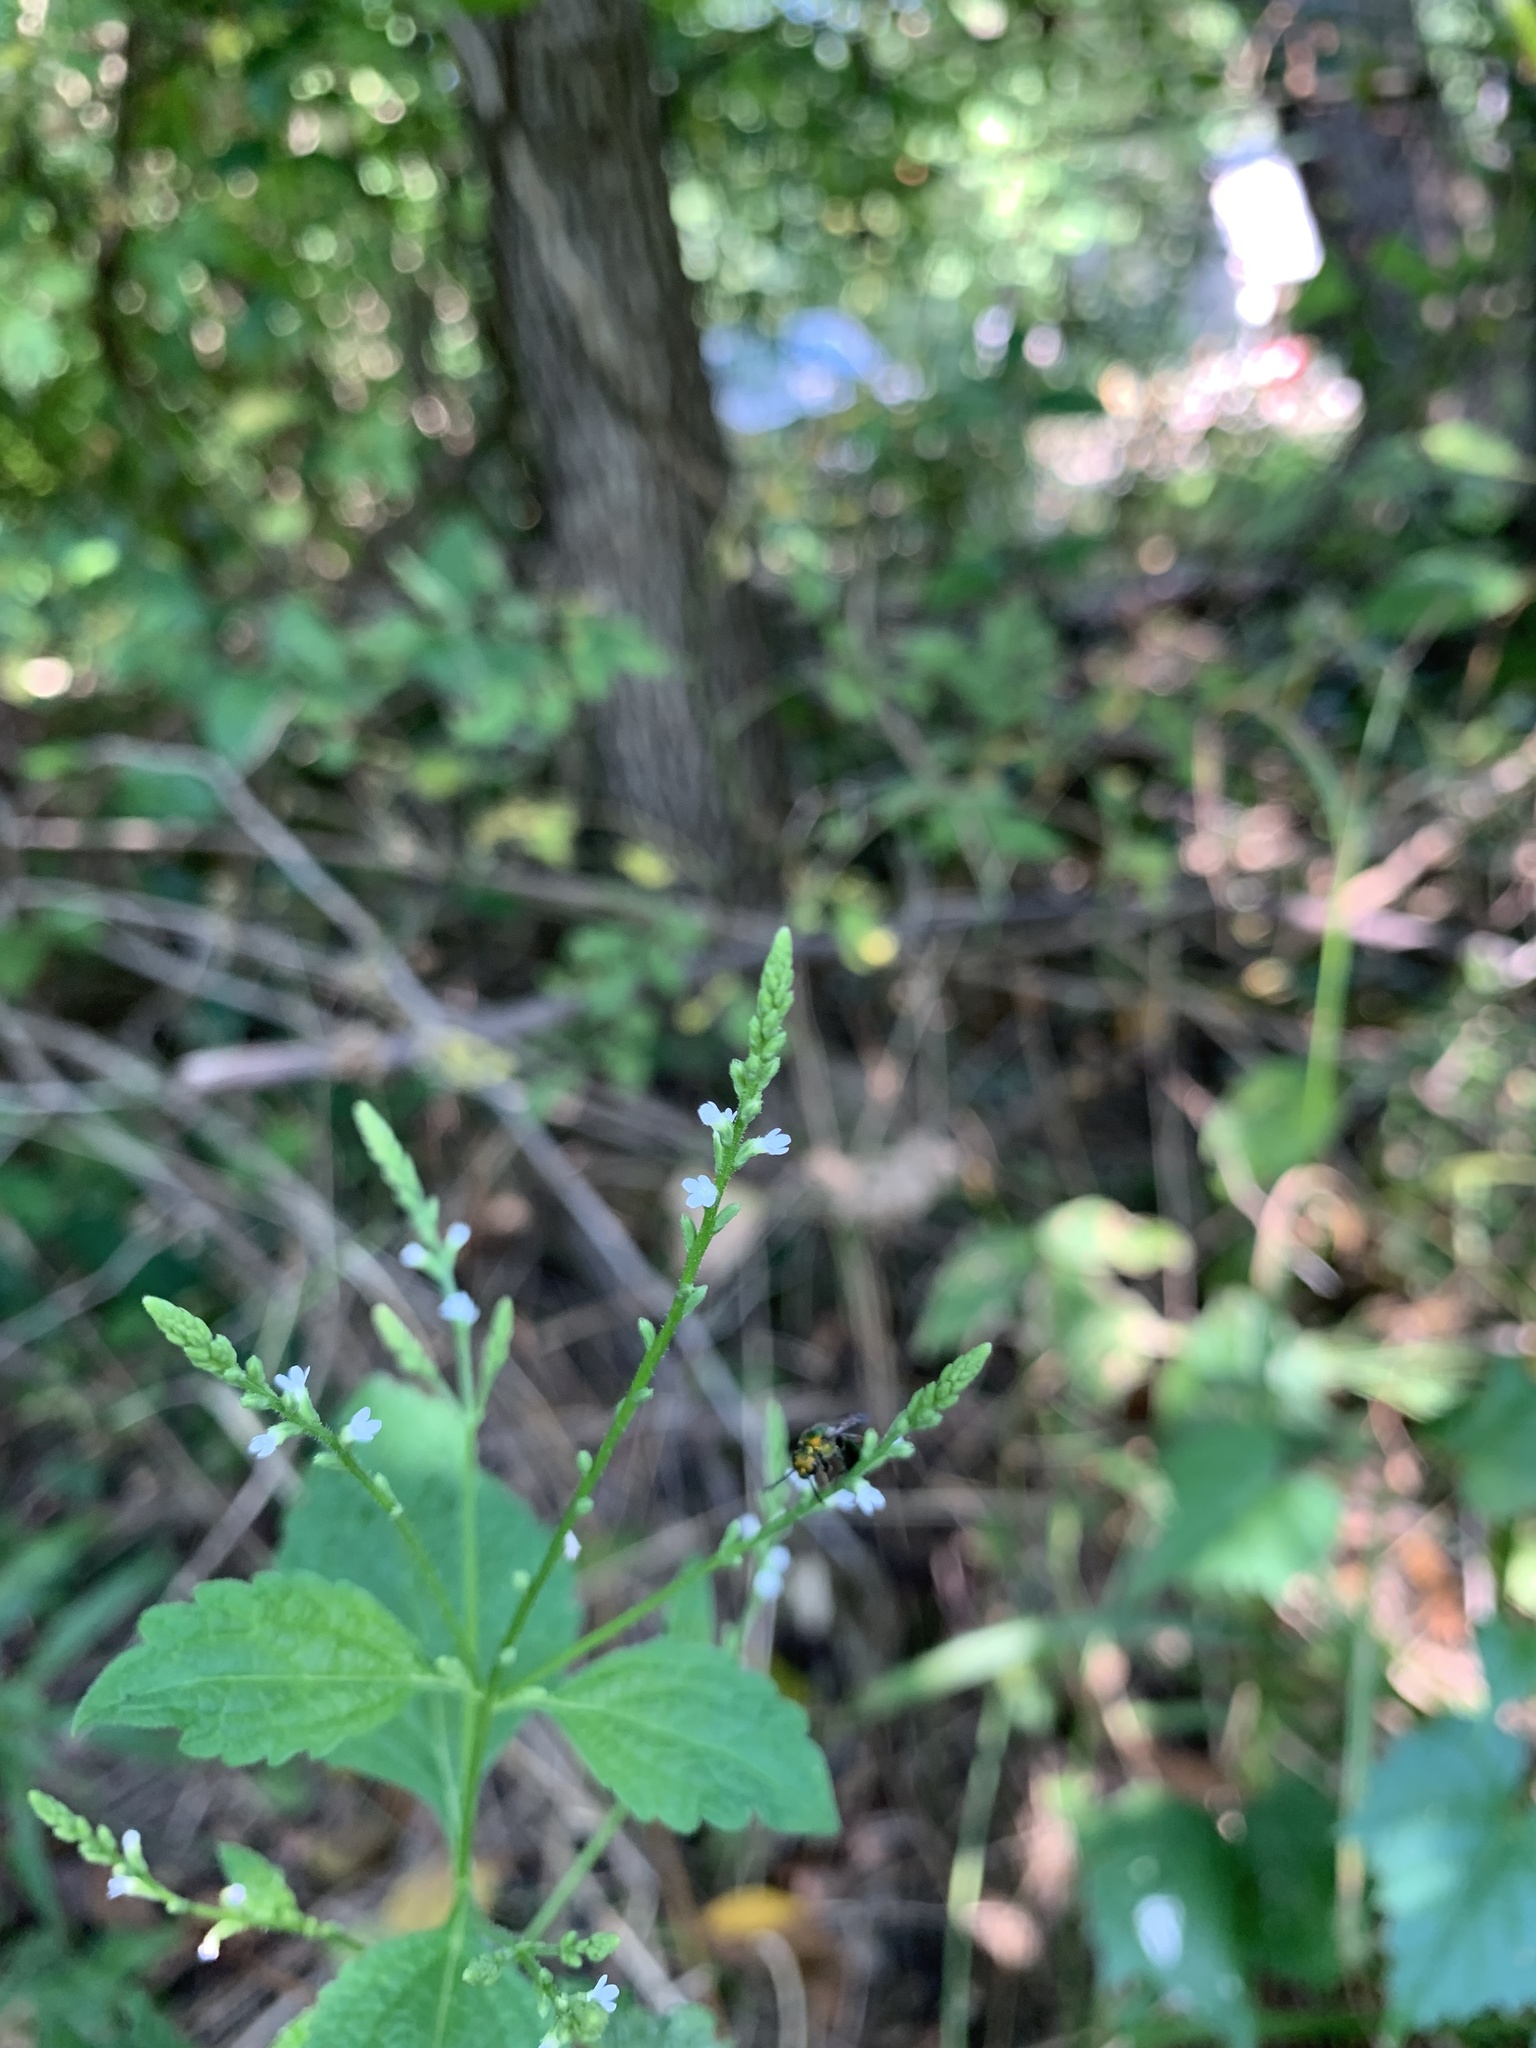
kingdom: Plantae
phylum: Tracheophyta
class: Magnoliopsida
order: Lamiales
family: Verbenaceae
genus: Verbena
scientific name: Verbena urticifolia
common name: Nettle-leaved vervain
